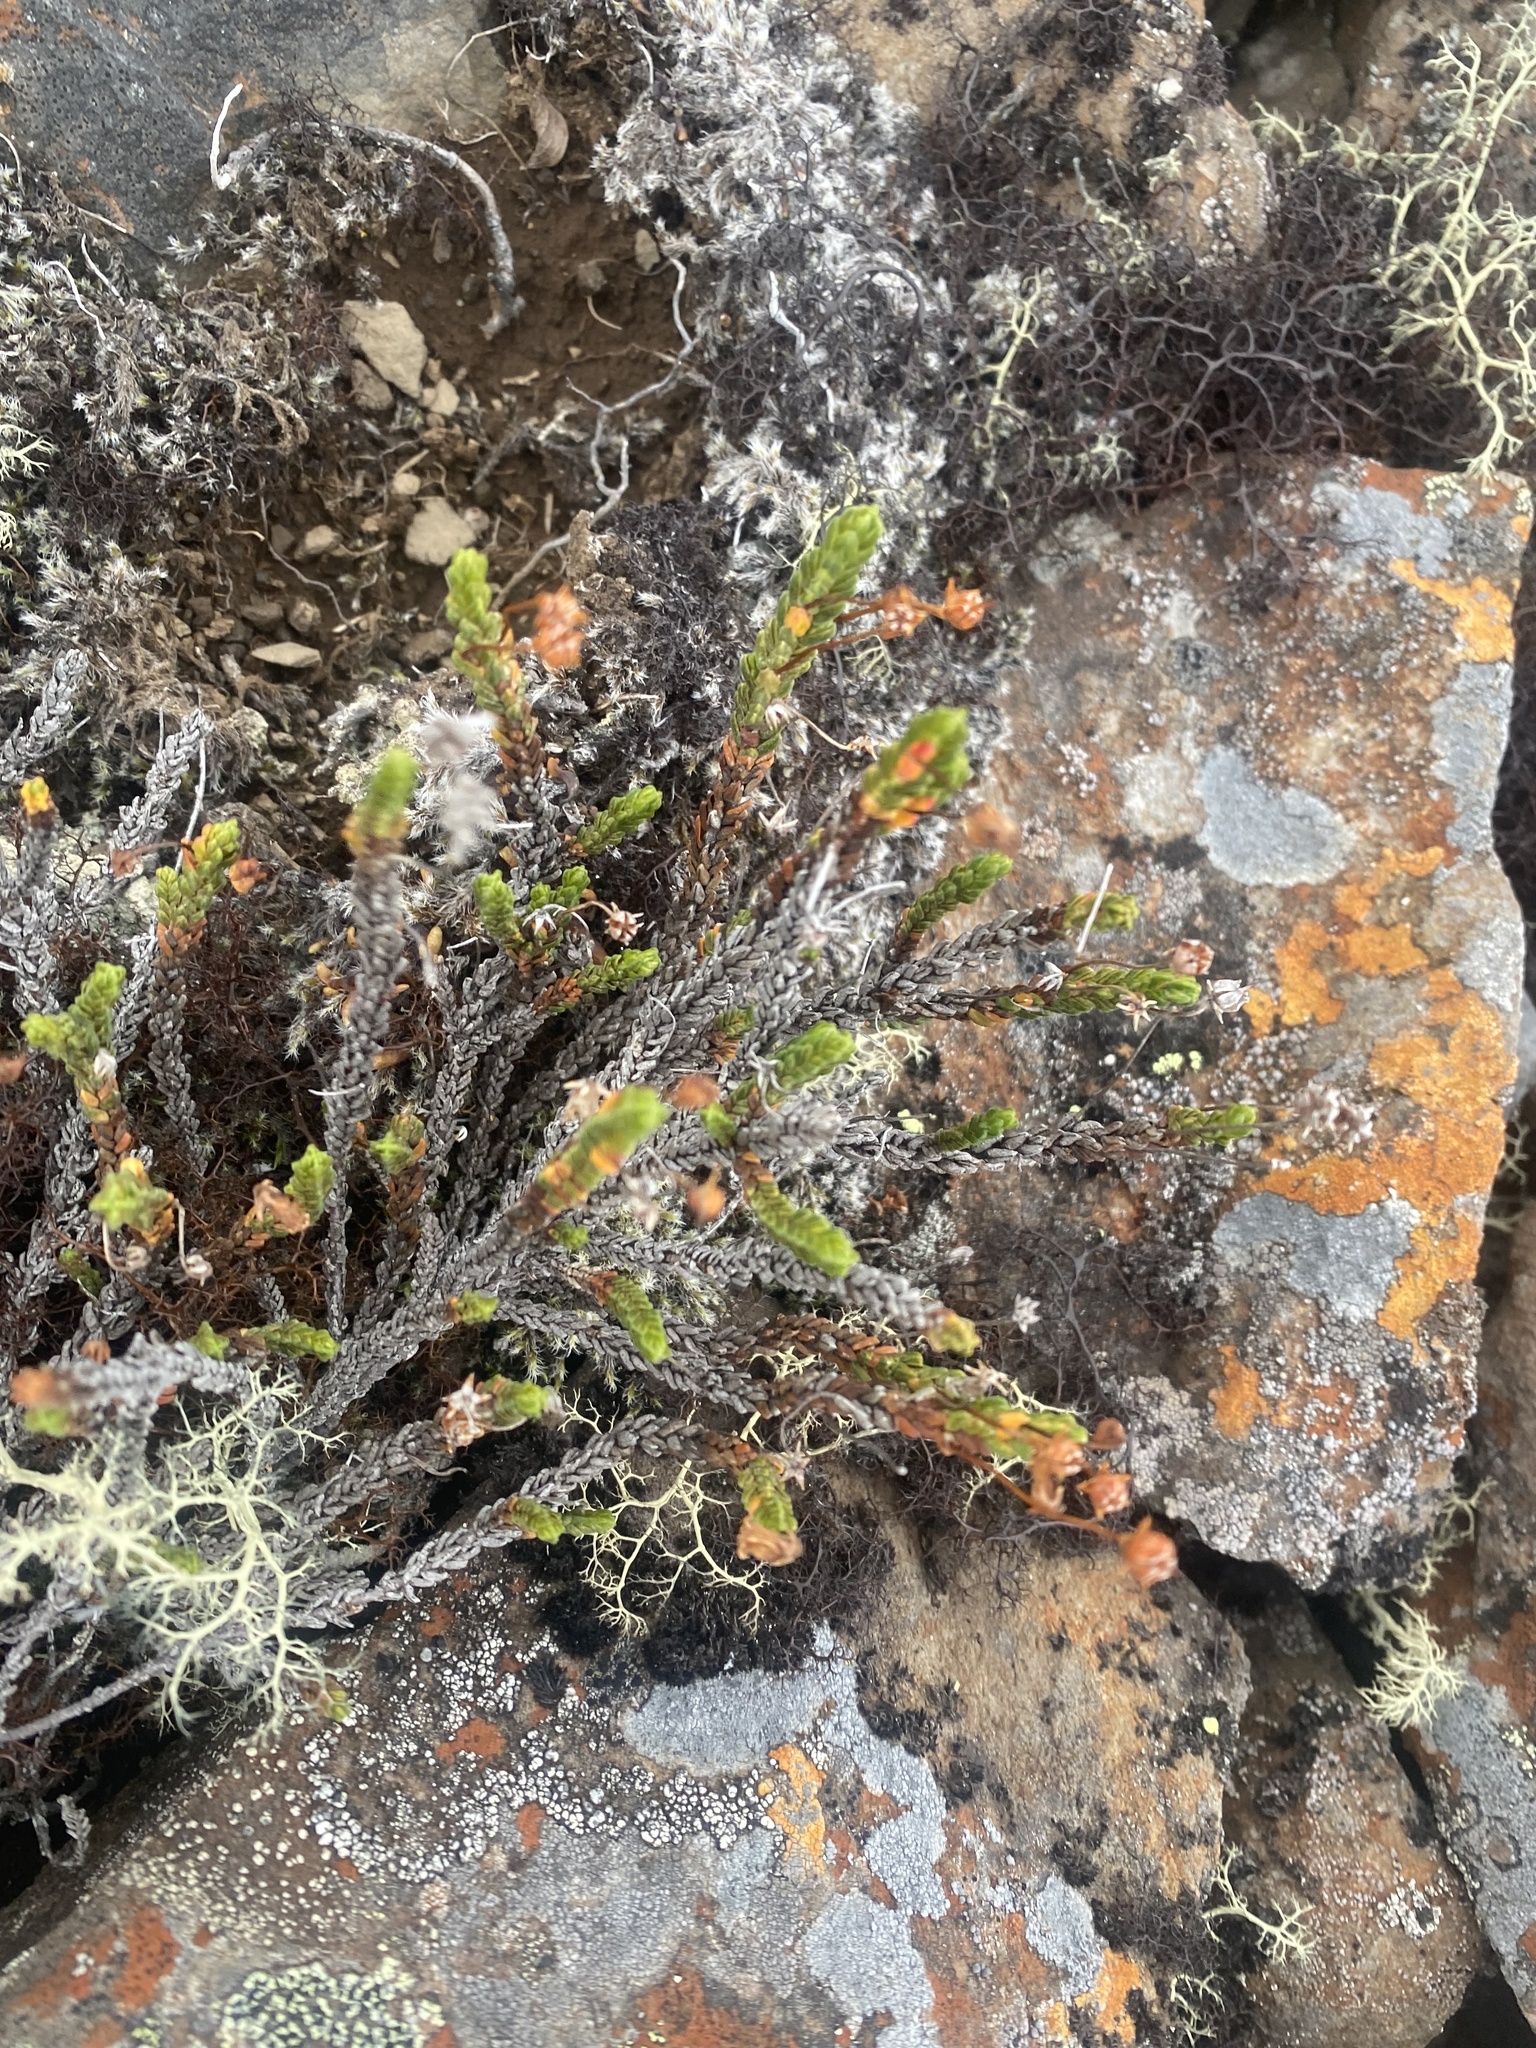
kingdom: Plantae
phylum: Tracheophyta
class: Magnoliopsida
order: Ericales
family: Ericaceae
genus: Cassiope
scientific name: Cassiope tetragona
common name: Arctic bell heather
